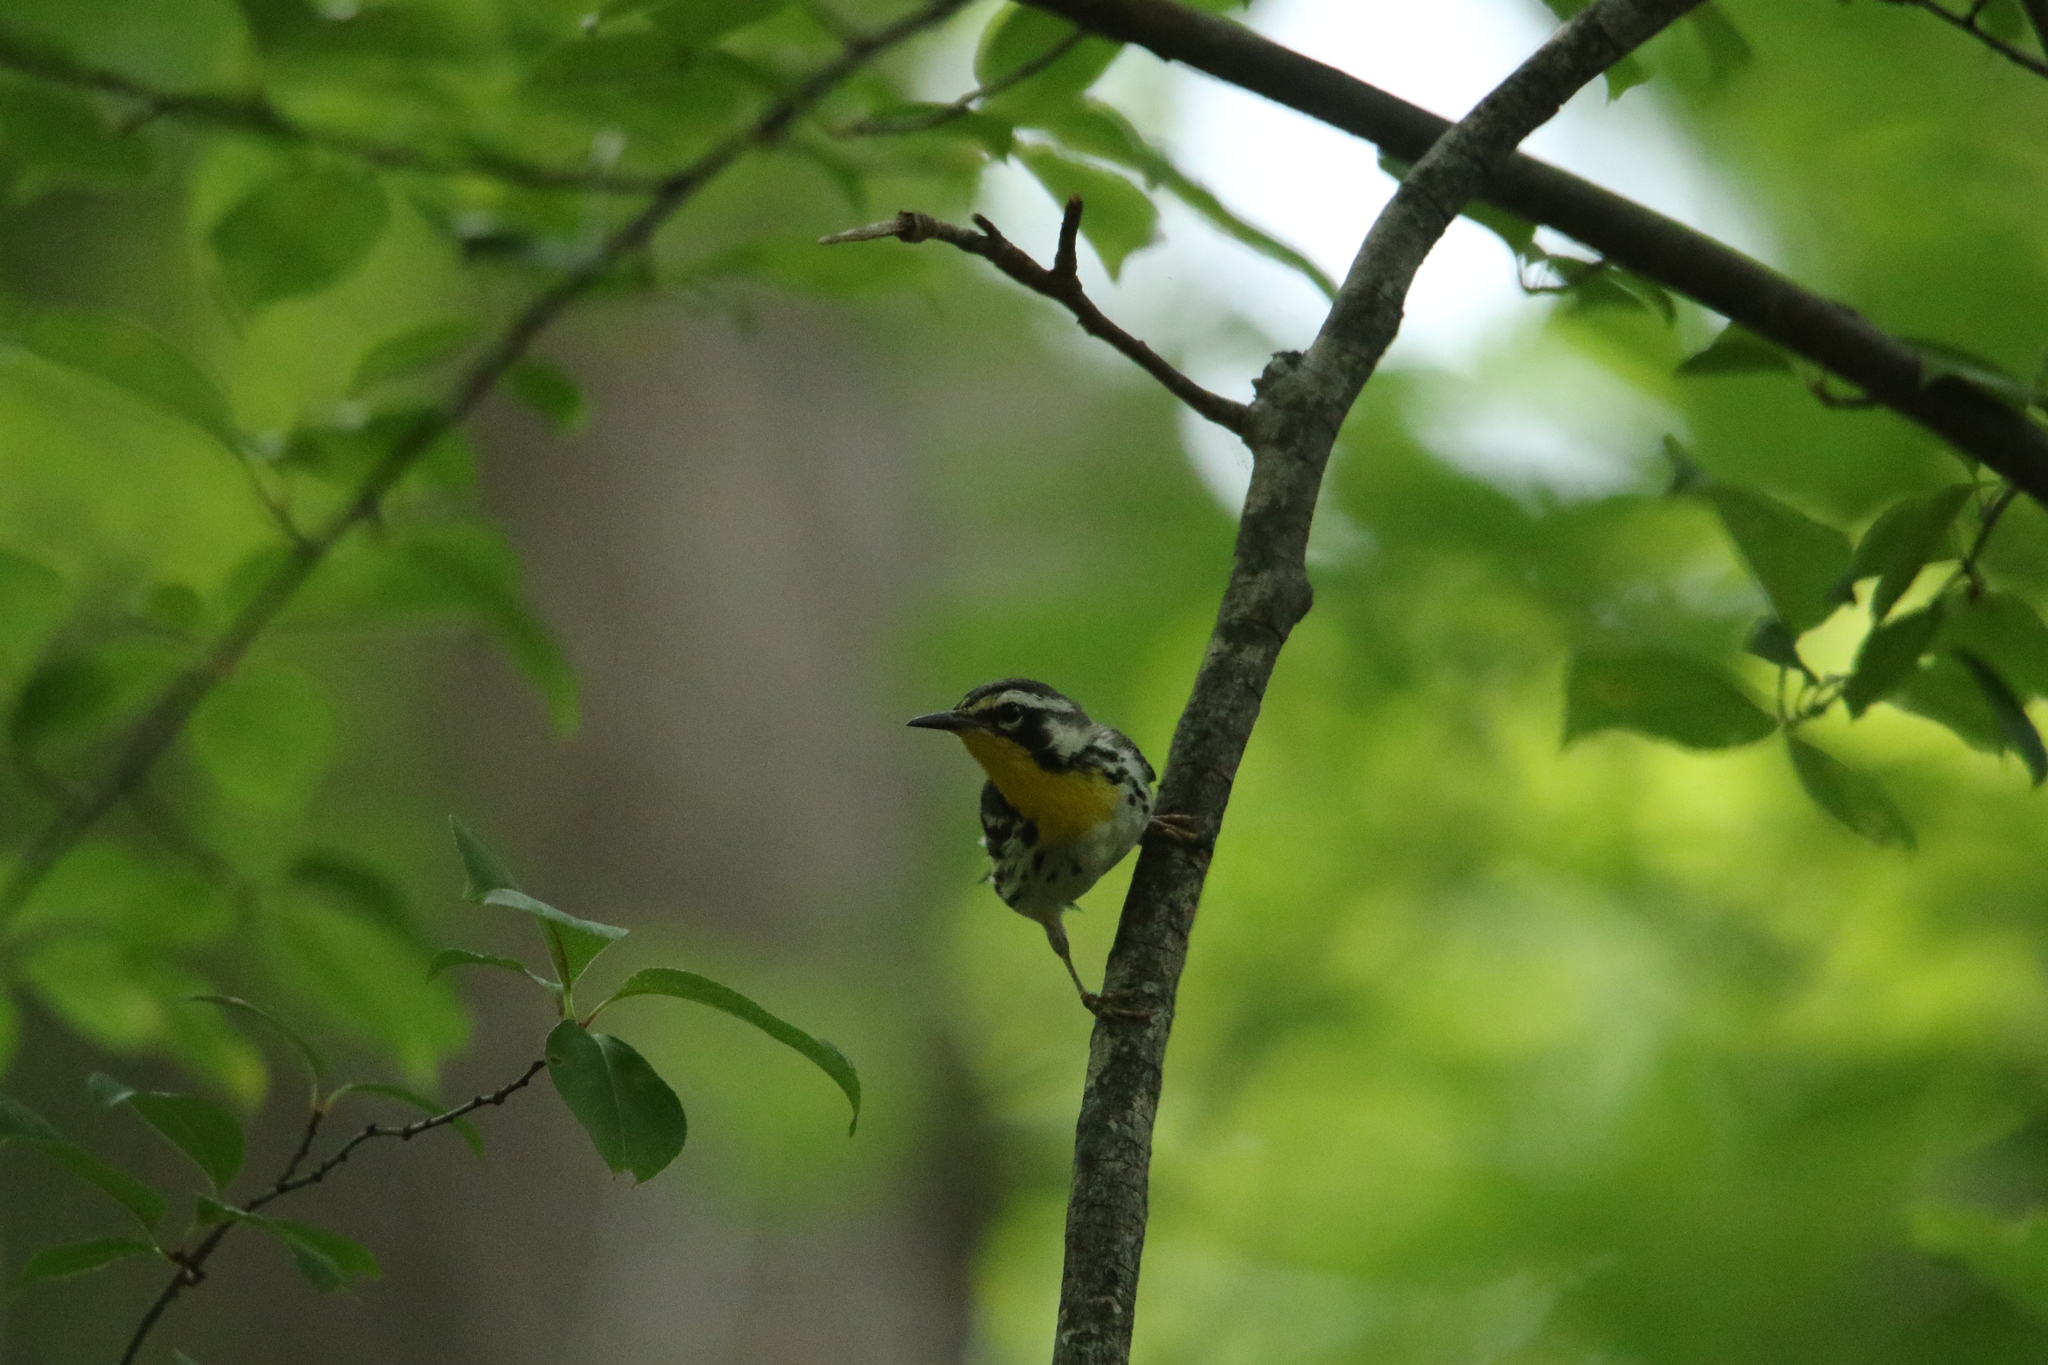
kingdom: Animalia
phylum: Chordata
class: Aves
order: Passeriformes
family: Parulidae
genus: Setophaga
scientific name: Setophaga dominica
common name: Yellow-throated warbler
